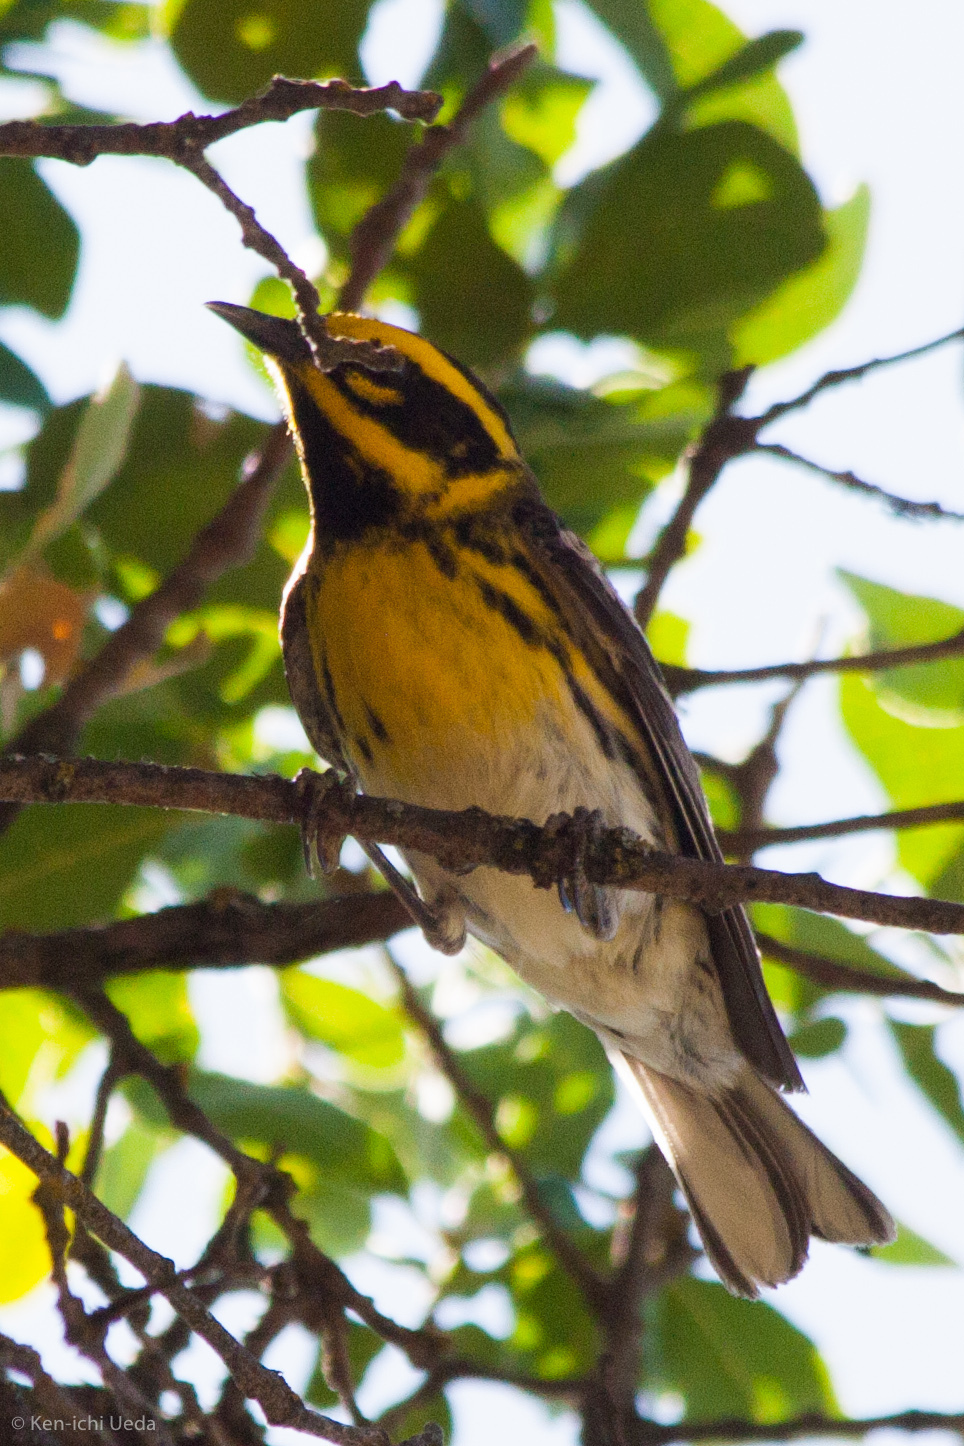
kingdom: Animalia
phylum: Chordata
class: Aves
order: Passeriformes
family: Parulidae
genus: Setophaga
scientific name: Setophaga townsendi
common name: Townsend's warbler
